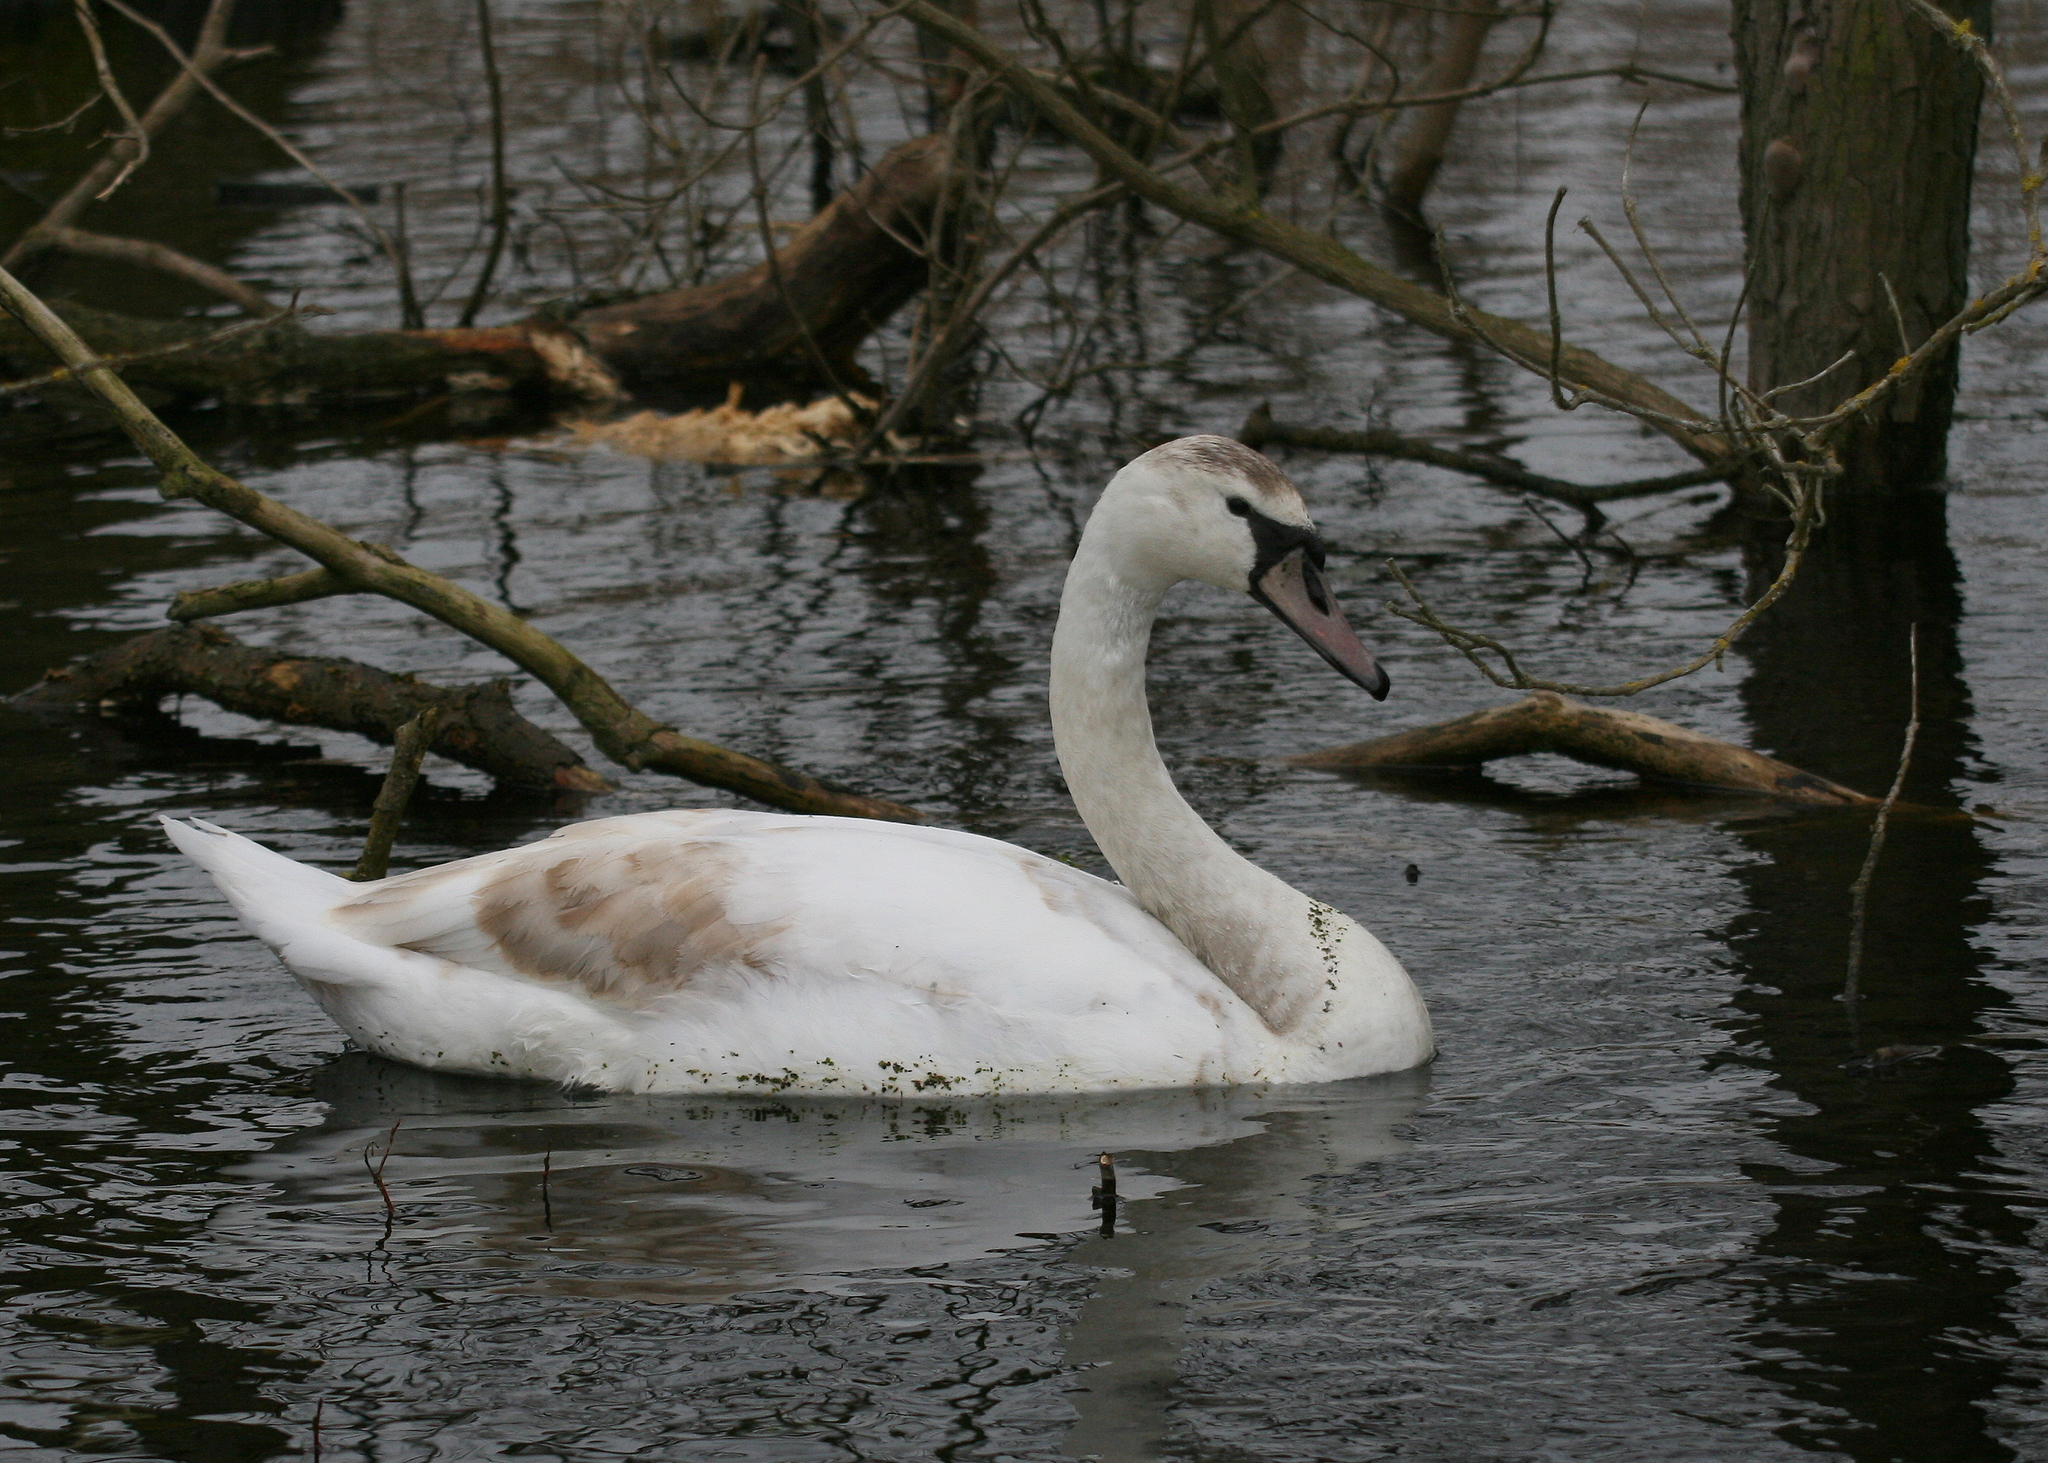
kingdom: Animalia
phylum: Chordata
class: Aves
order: Anseriformes
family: Anatidae
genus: Cygnus
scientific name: Cygnus olor
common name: Mute swan
